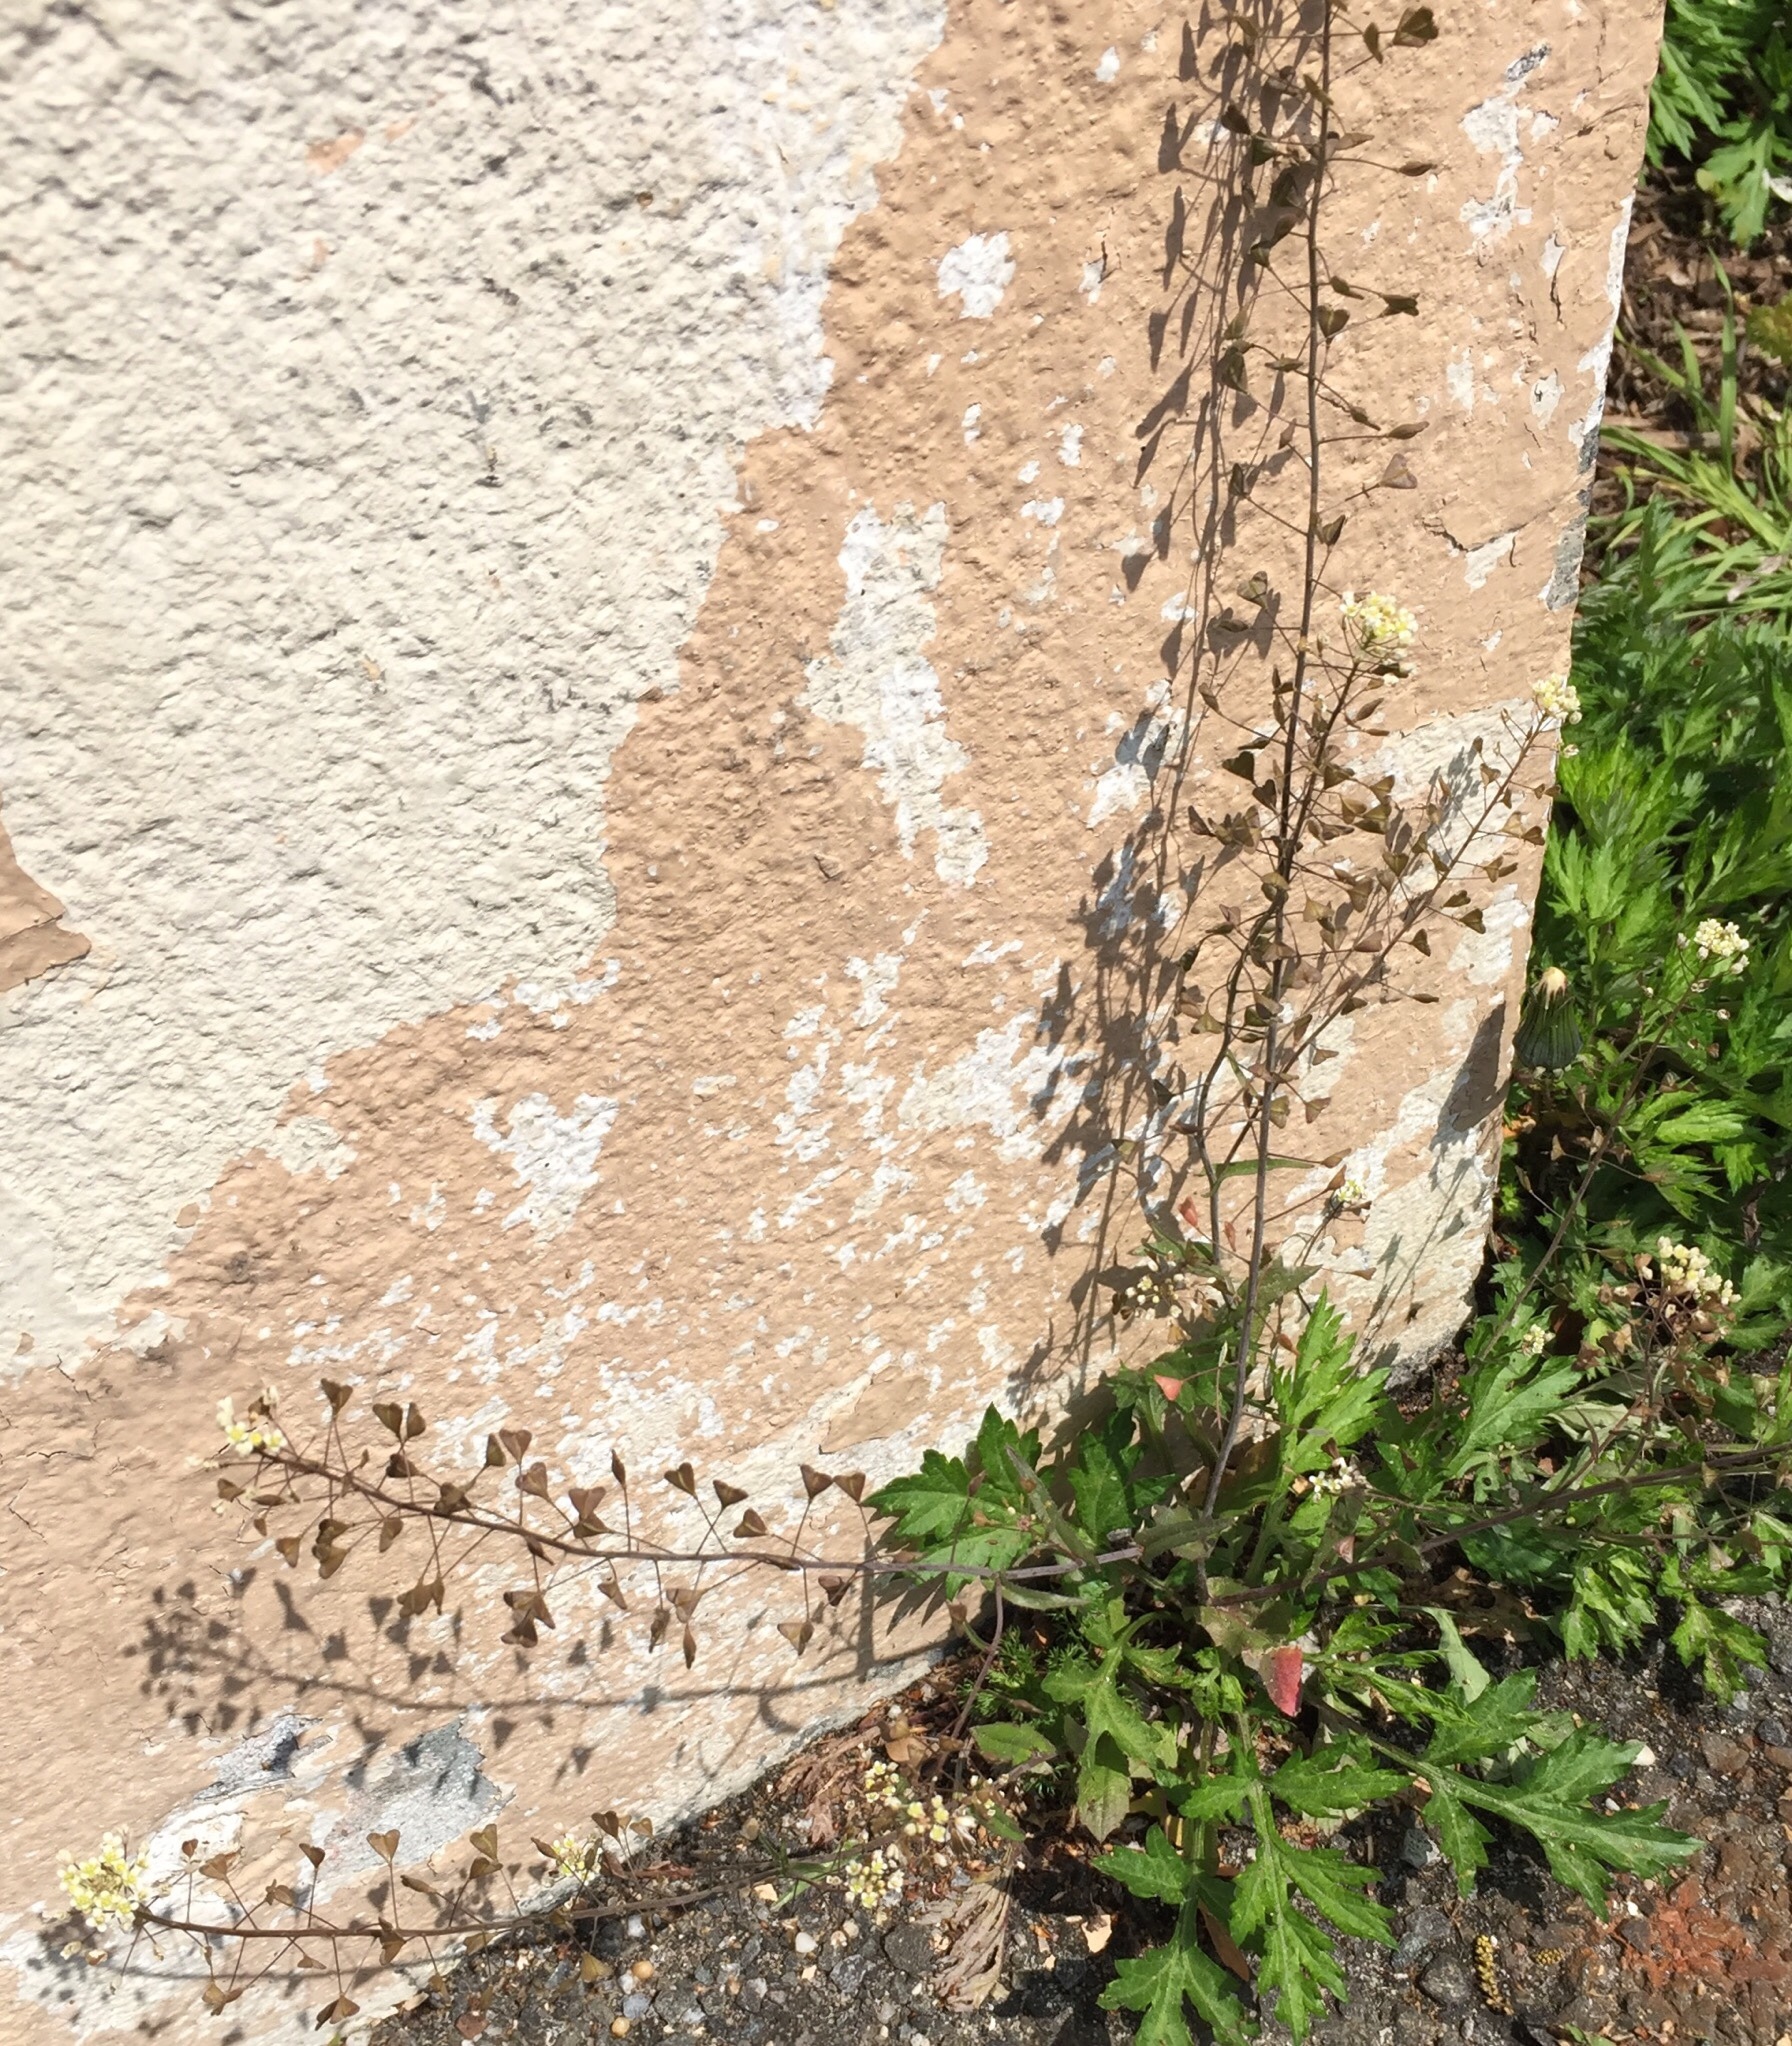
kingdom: Plantae
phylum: Tracheophyta
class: Magnoliopsida
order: Brassicales
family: Brassicaceae
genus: Capsella
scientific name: Capsella bursa-pastoris
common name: Shepherd's purse
